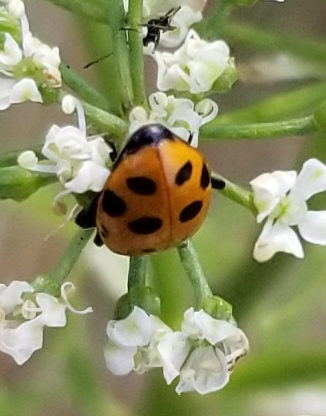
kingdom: Animalia
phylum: Arthropoda
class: Insecta
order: Coleoptera
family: Coccinellidae
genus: Hippodamia
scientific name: Hippodamia convergens
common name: Convergent lady beetle
